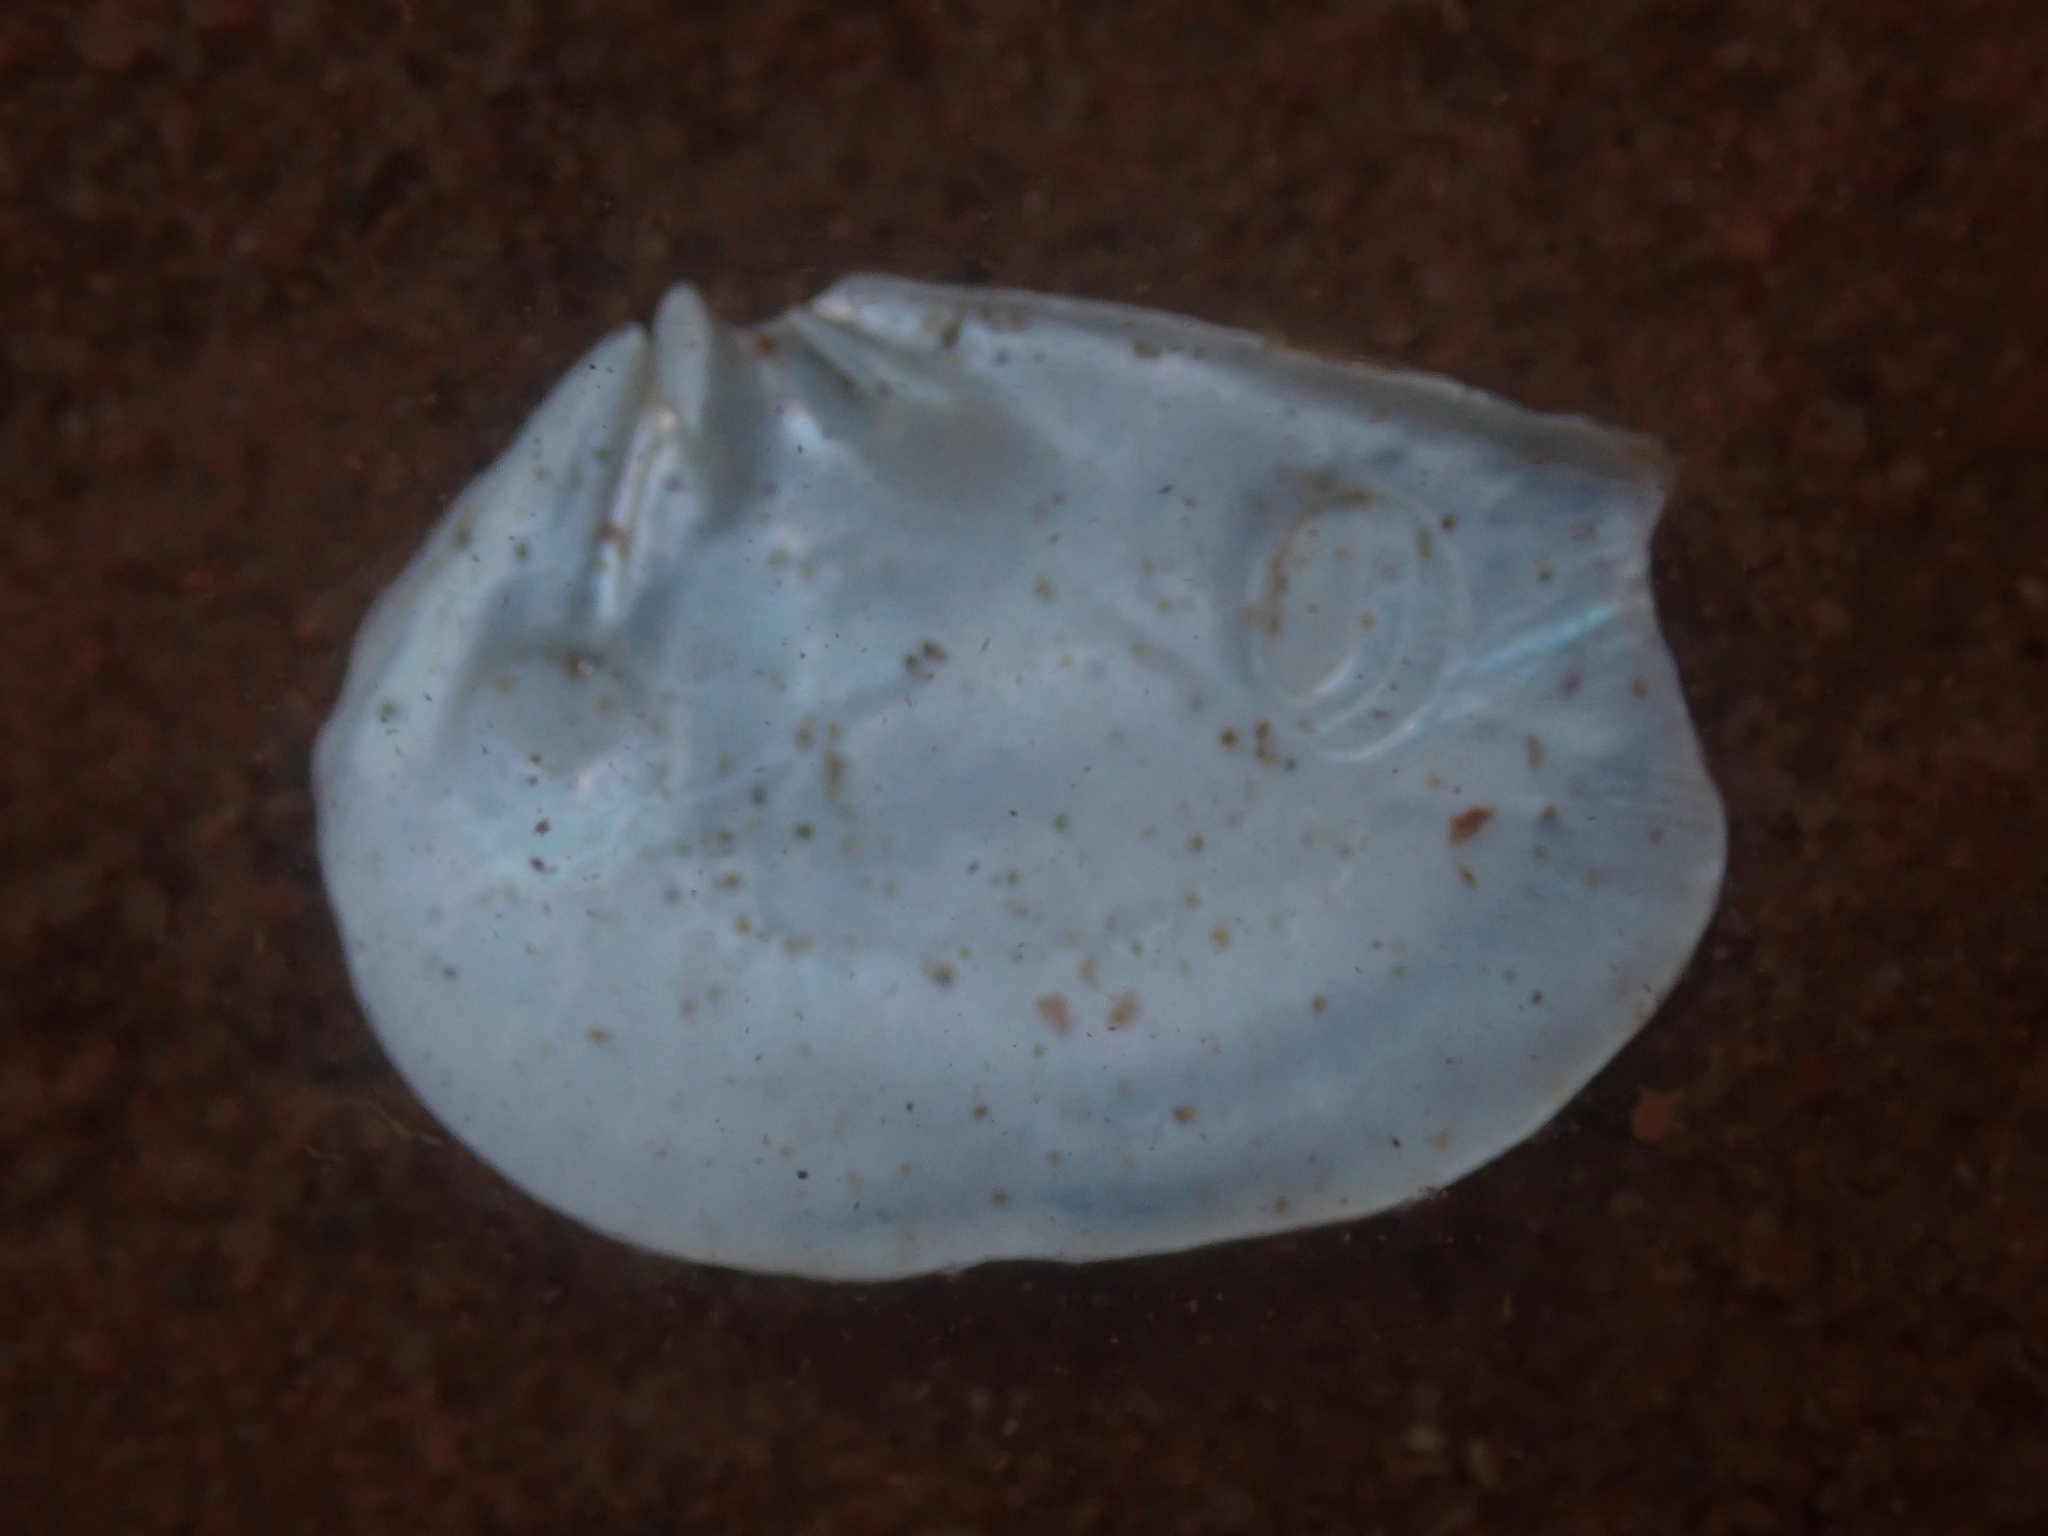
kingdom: Animalia
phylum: Mollusca
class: Bivalvia
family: Pandoridae
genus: Pandora
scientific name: Pandora gouldiana
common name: Rounded pandora
